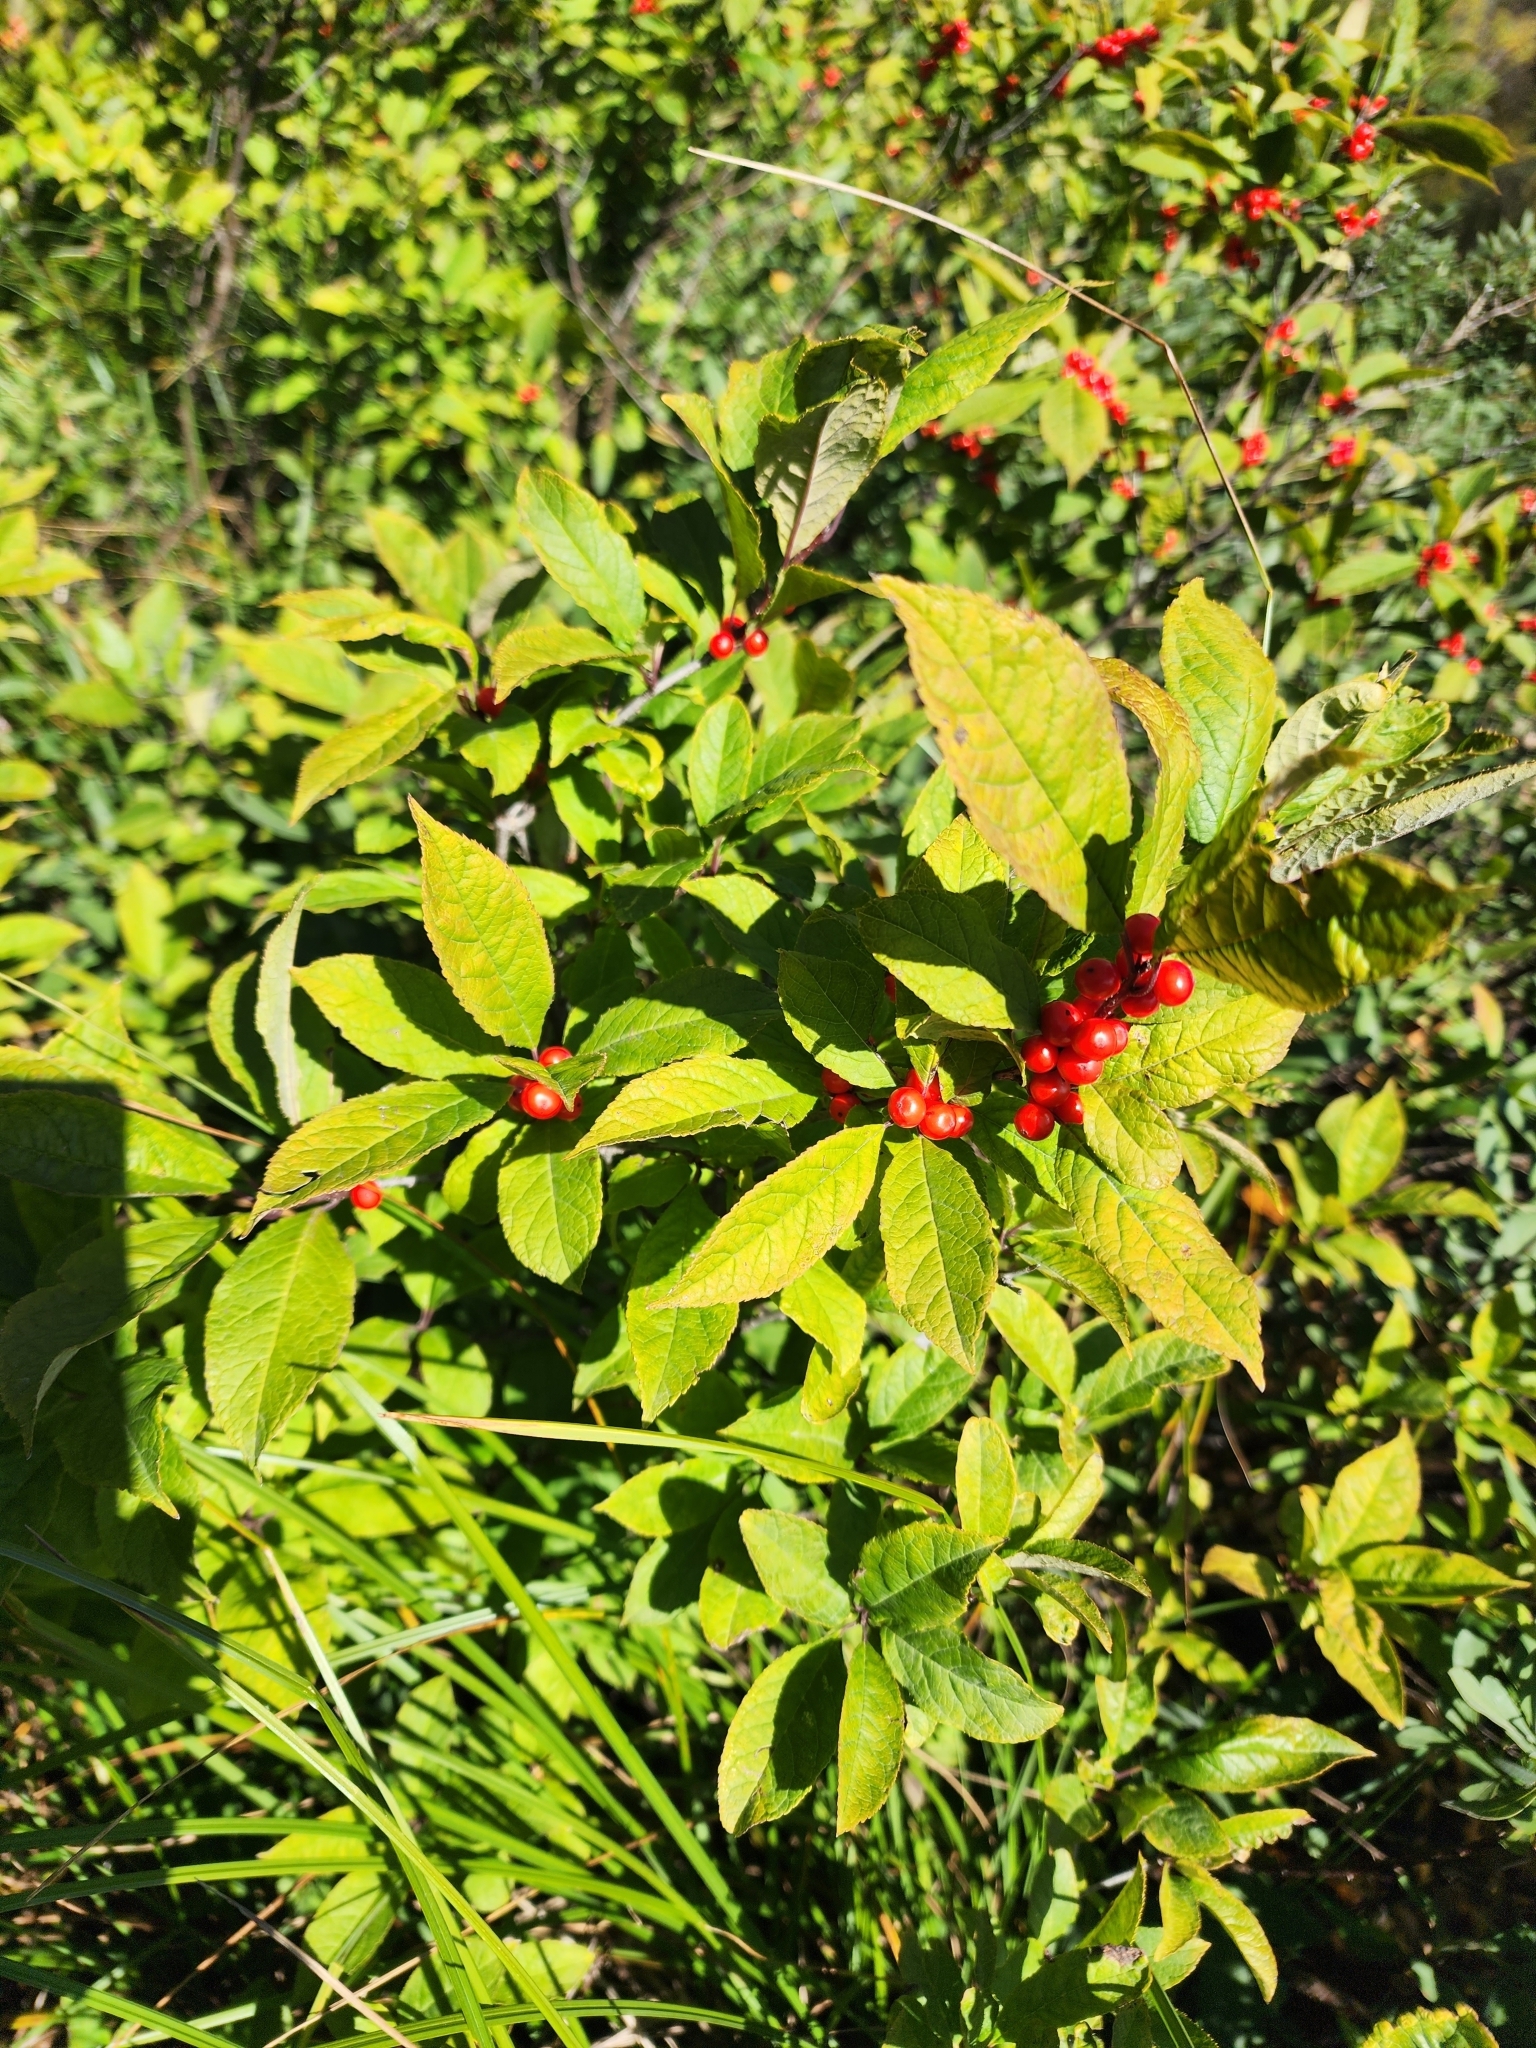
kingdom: Plantae
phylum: Tracheophyta
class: Magnoliopsida
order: Aquifoliales
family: Aquifoliaceae
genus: Ilex
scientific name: Ilex verticillata
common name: Virginia winterberry
